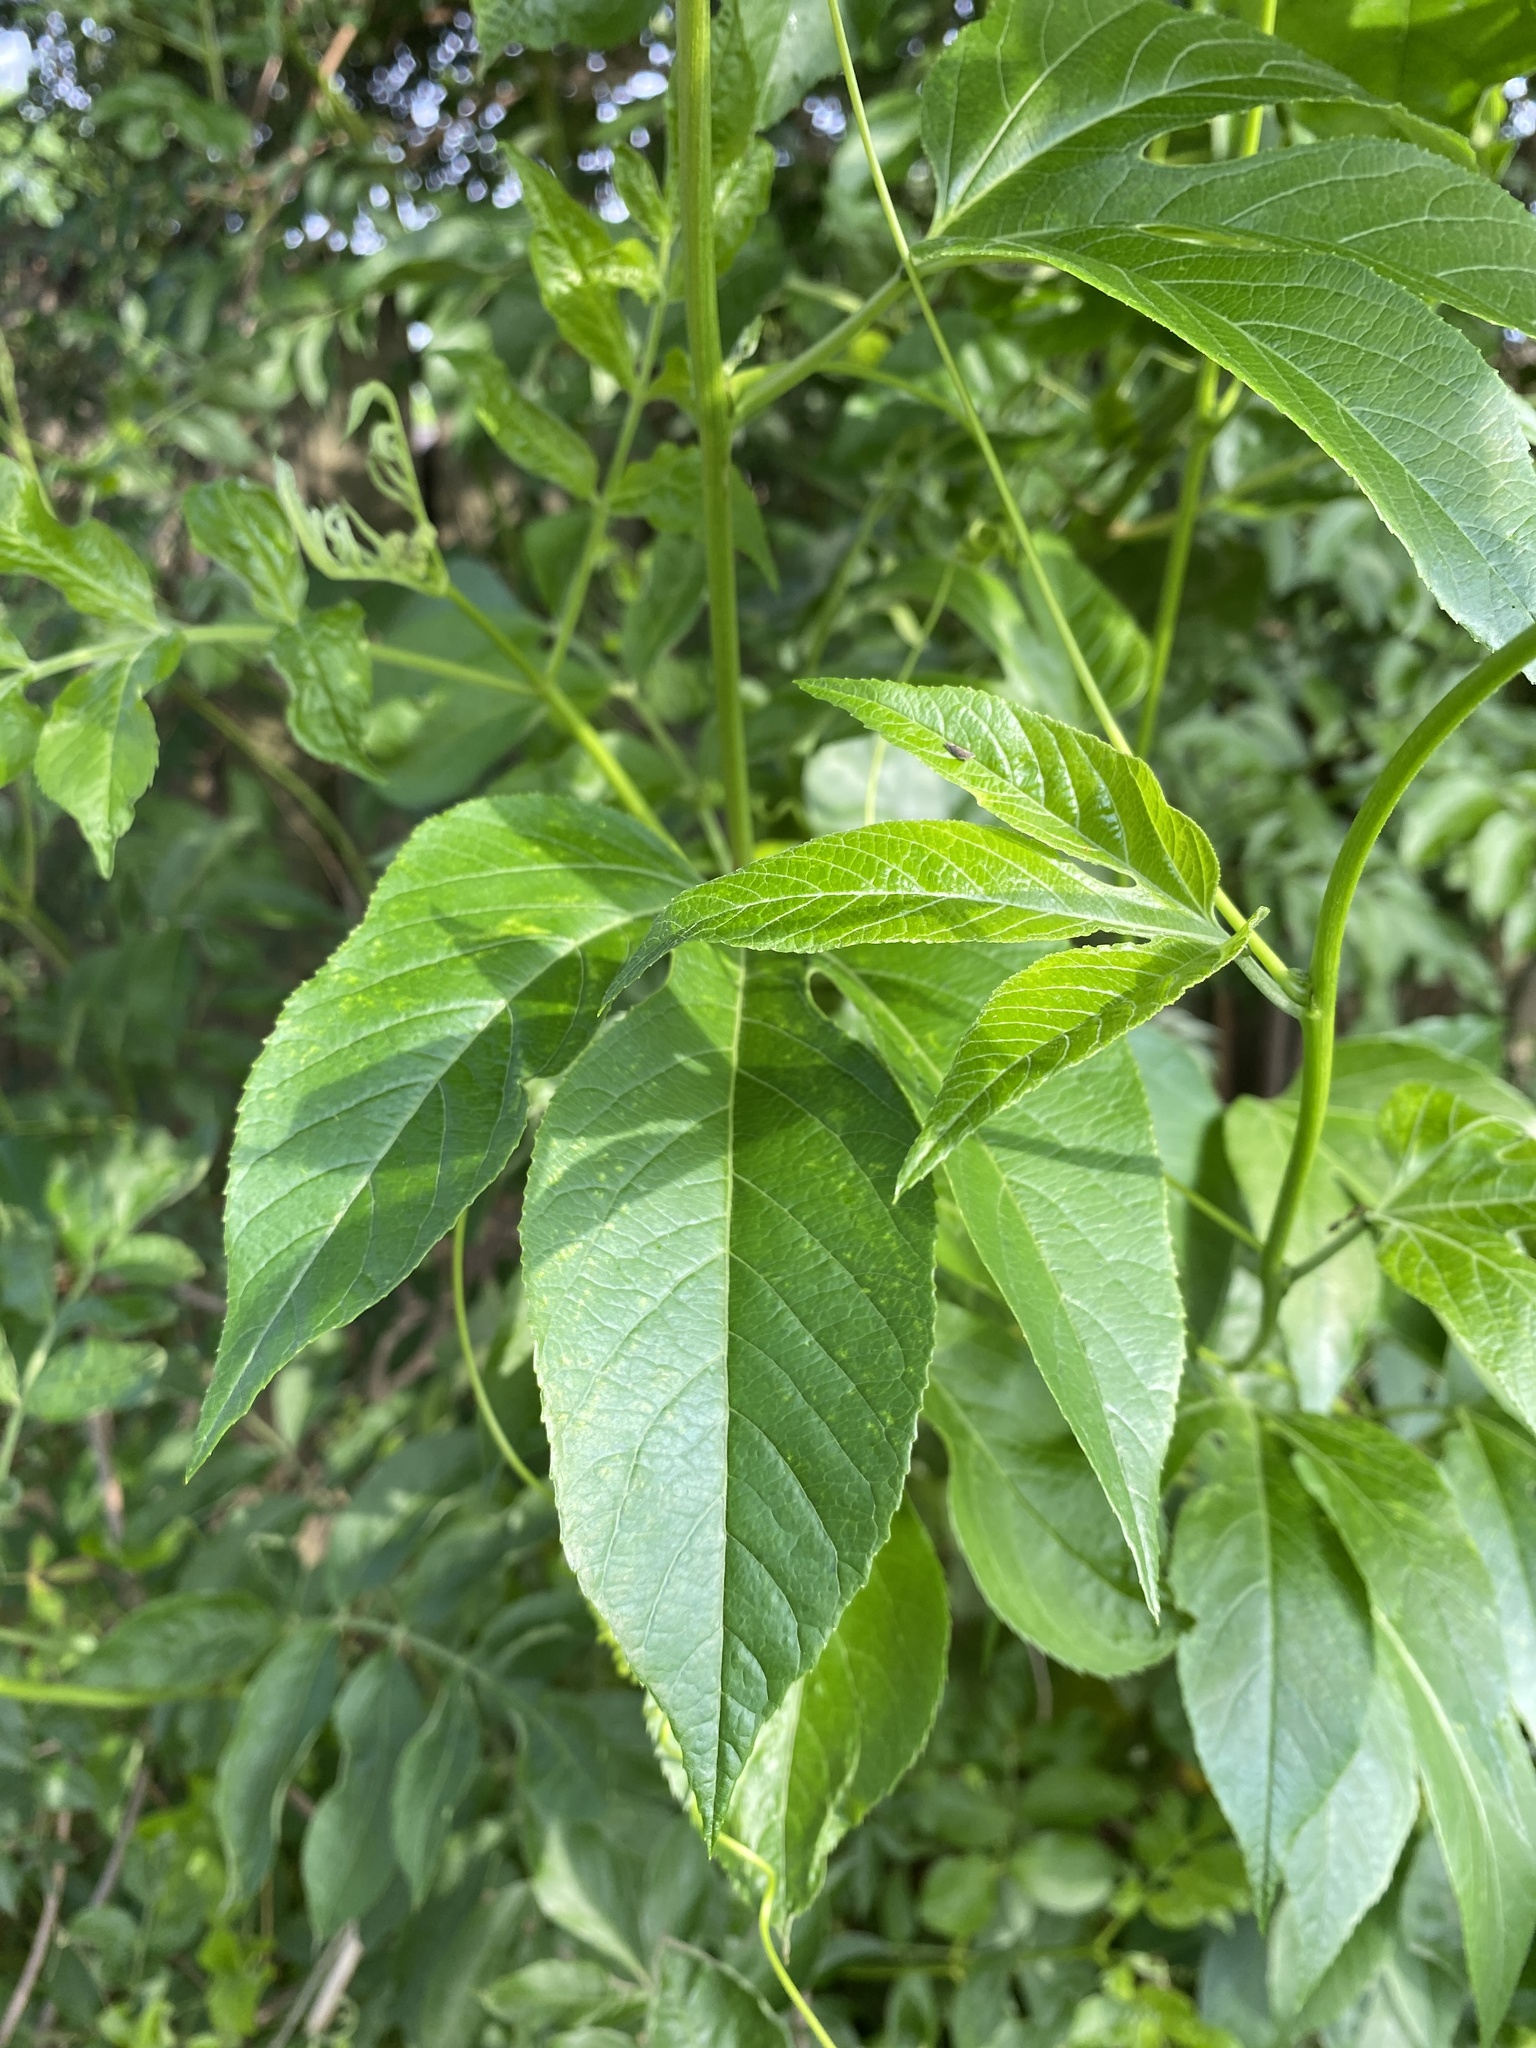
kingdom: Plantae
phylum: Tracheophyta
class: Magnoliopsida
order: Malpighiales
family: Passifloraceae
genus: Passiflora
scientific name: Passiflora incarnata
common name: Apricot-vine
